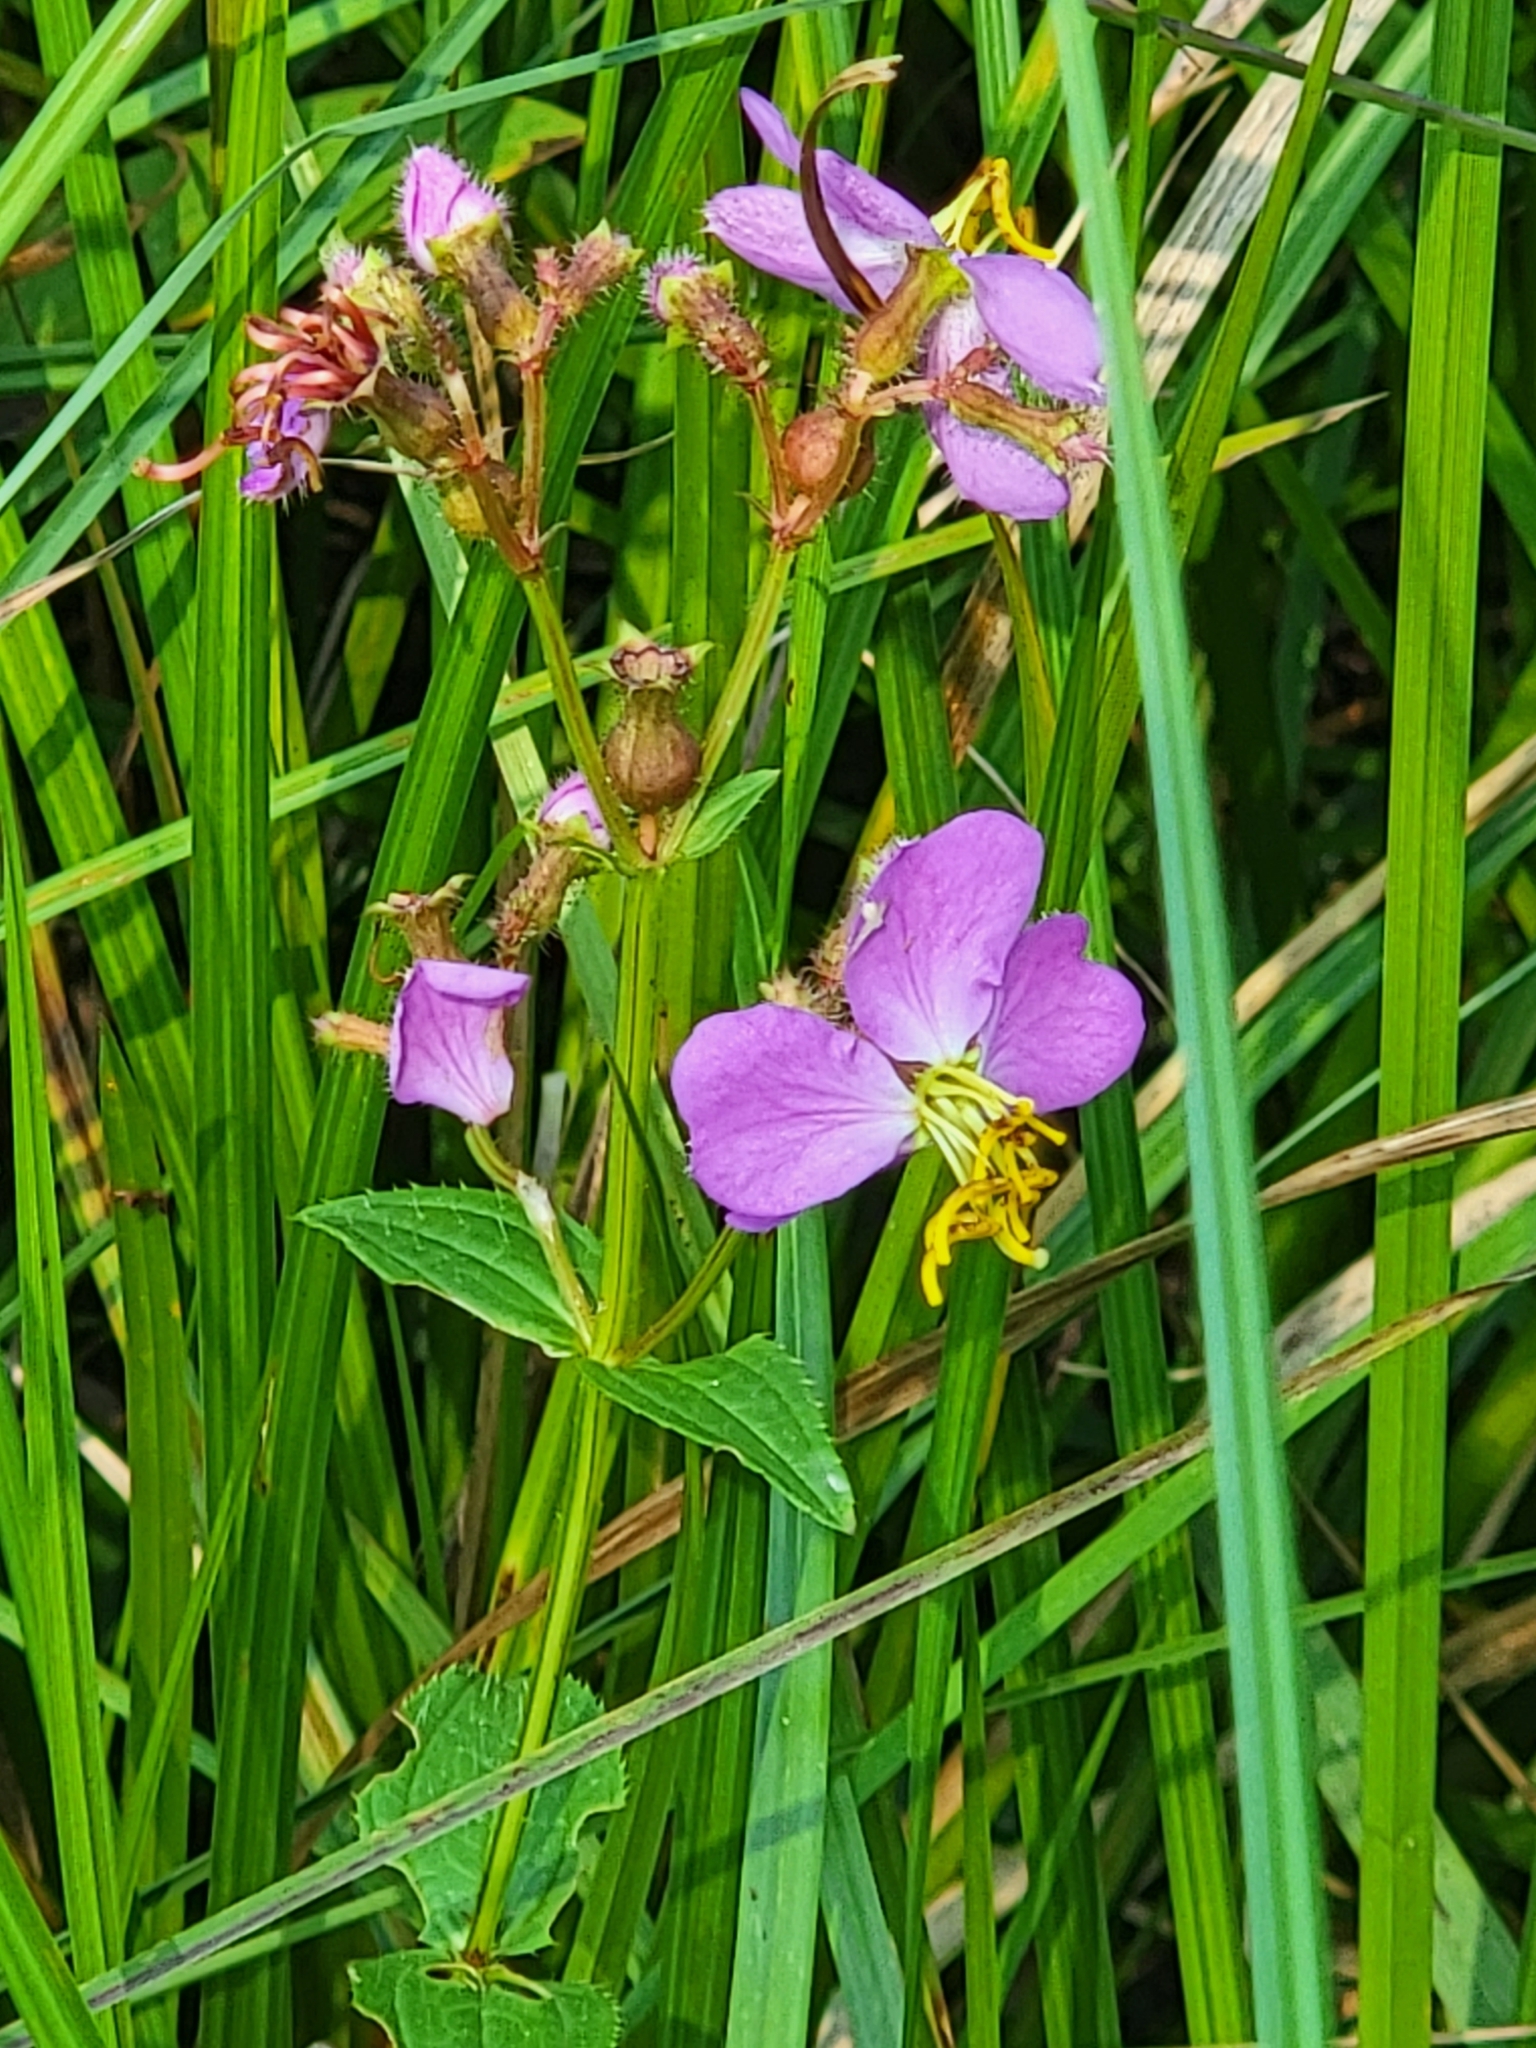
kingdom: Plantae
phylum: Tracheophyta
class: Magnoliopsida
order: Myrtales
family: Melastomataceae
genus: Rhexia
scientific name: Rhexia virginica
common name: Common meadow beauty
